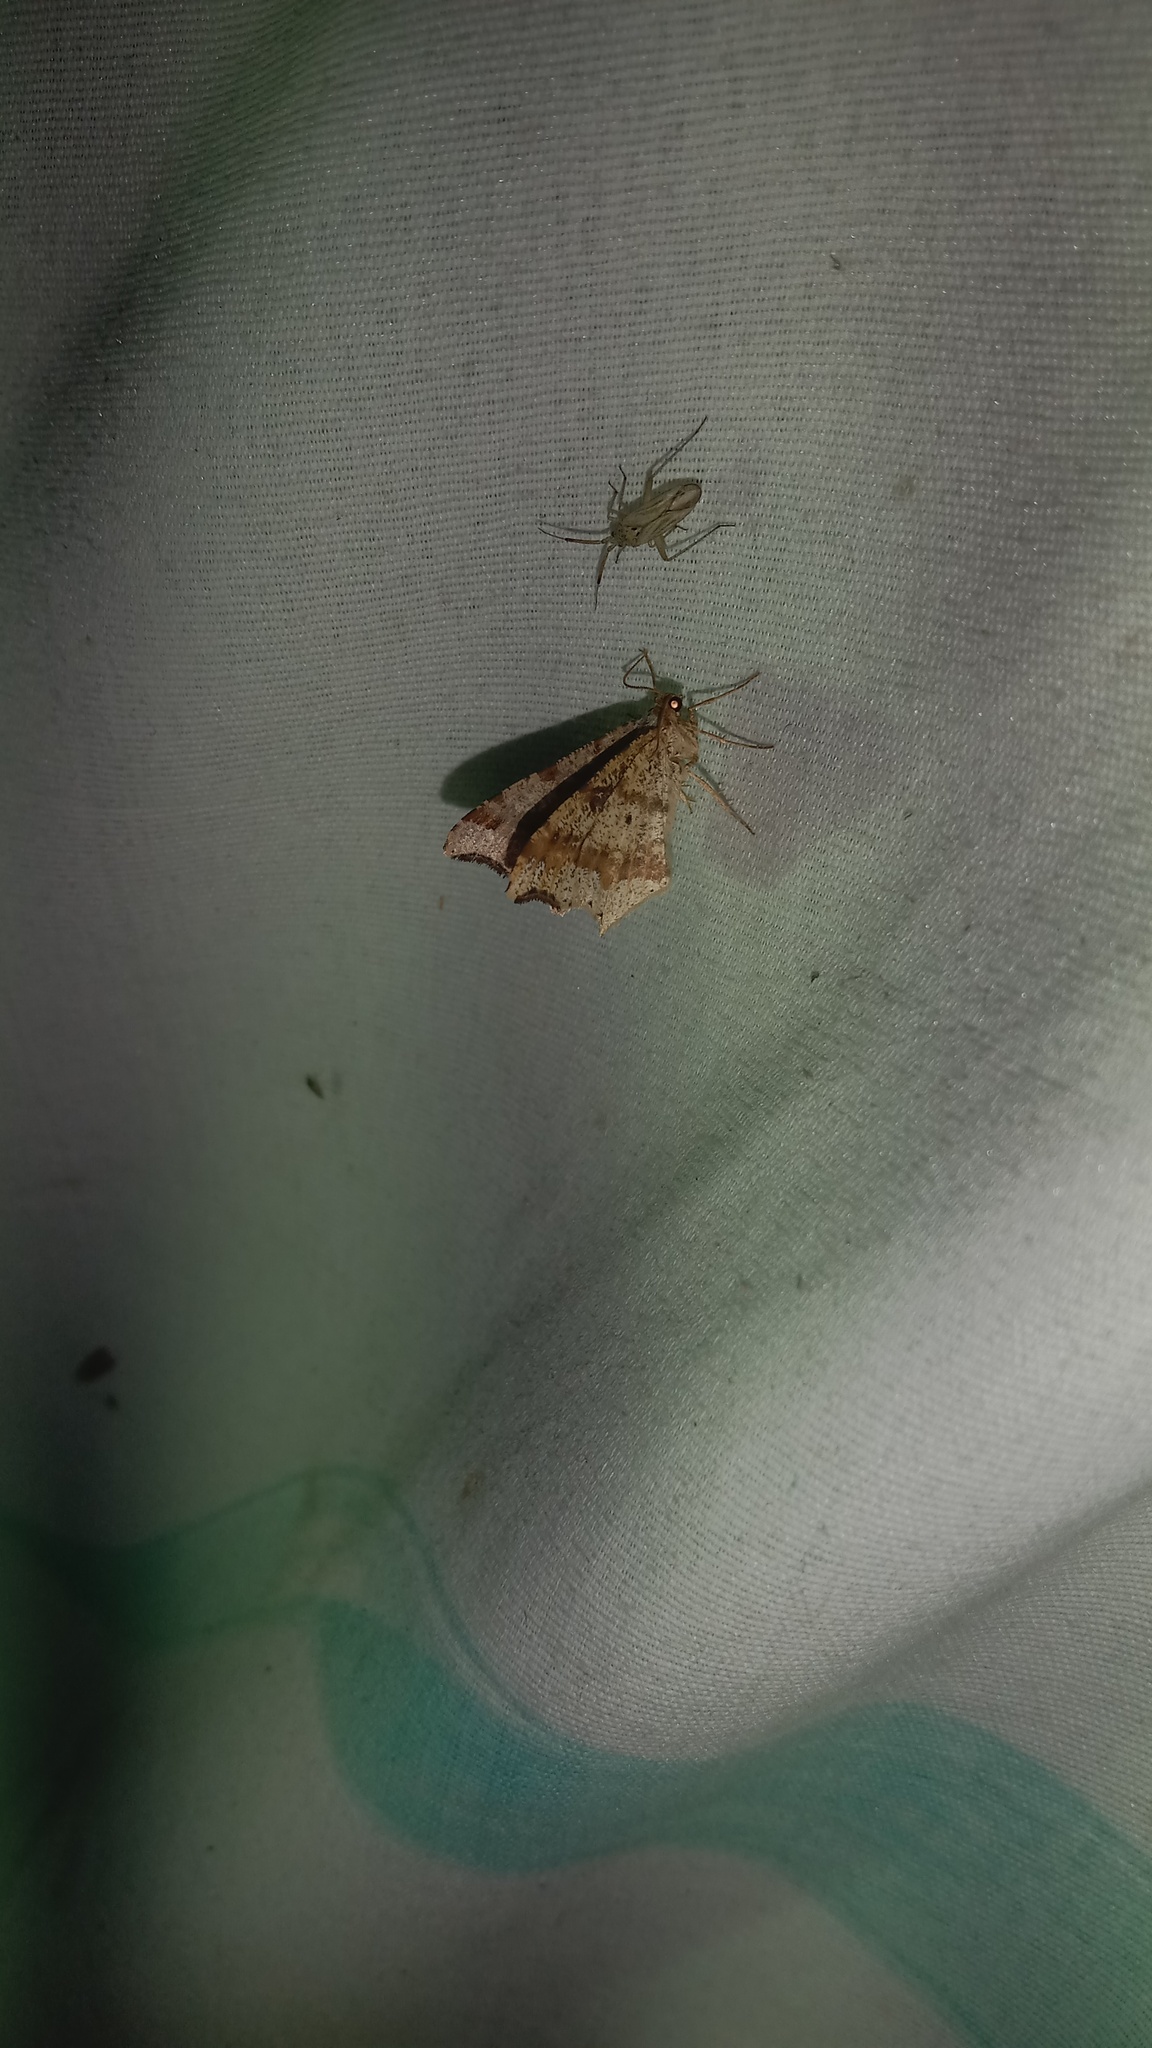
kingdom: Animalia
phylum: Arthropoda
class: Insecta
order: Lepidoptera
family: Geometridae
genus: Macaria
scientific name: Macaria alternata
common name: Sharp-angled peacock
